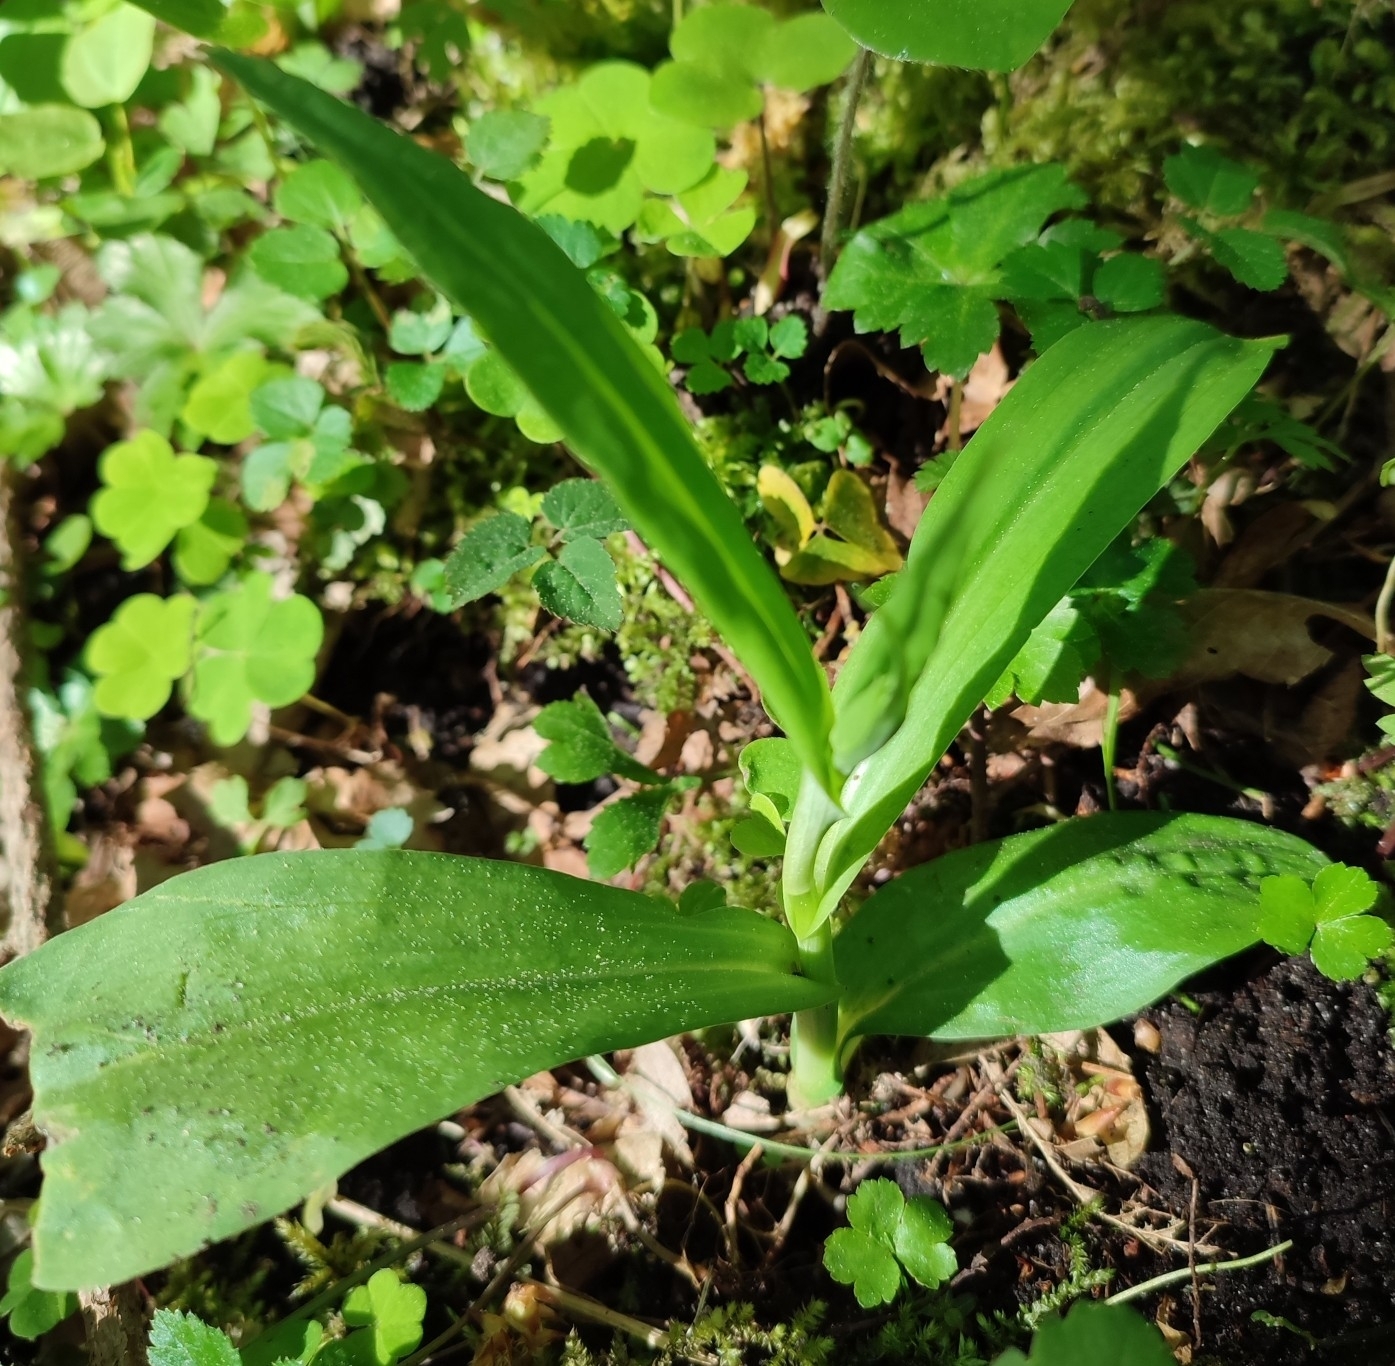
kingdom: Plantae
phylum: Tracheophyta
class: Liliopsida
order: Asparagales
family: Orchidaceae
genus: Dactylorhiza
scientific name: Dactylorhiza maculata
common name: Heath spotted-orchid
